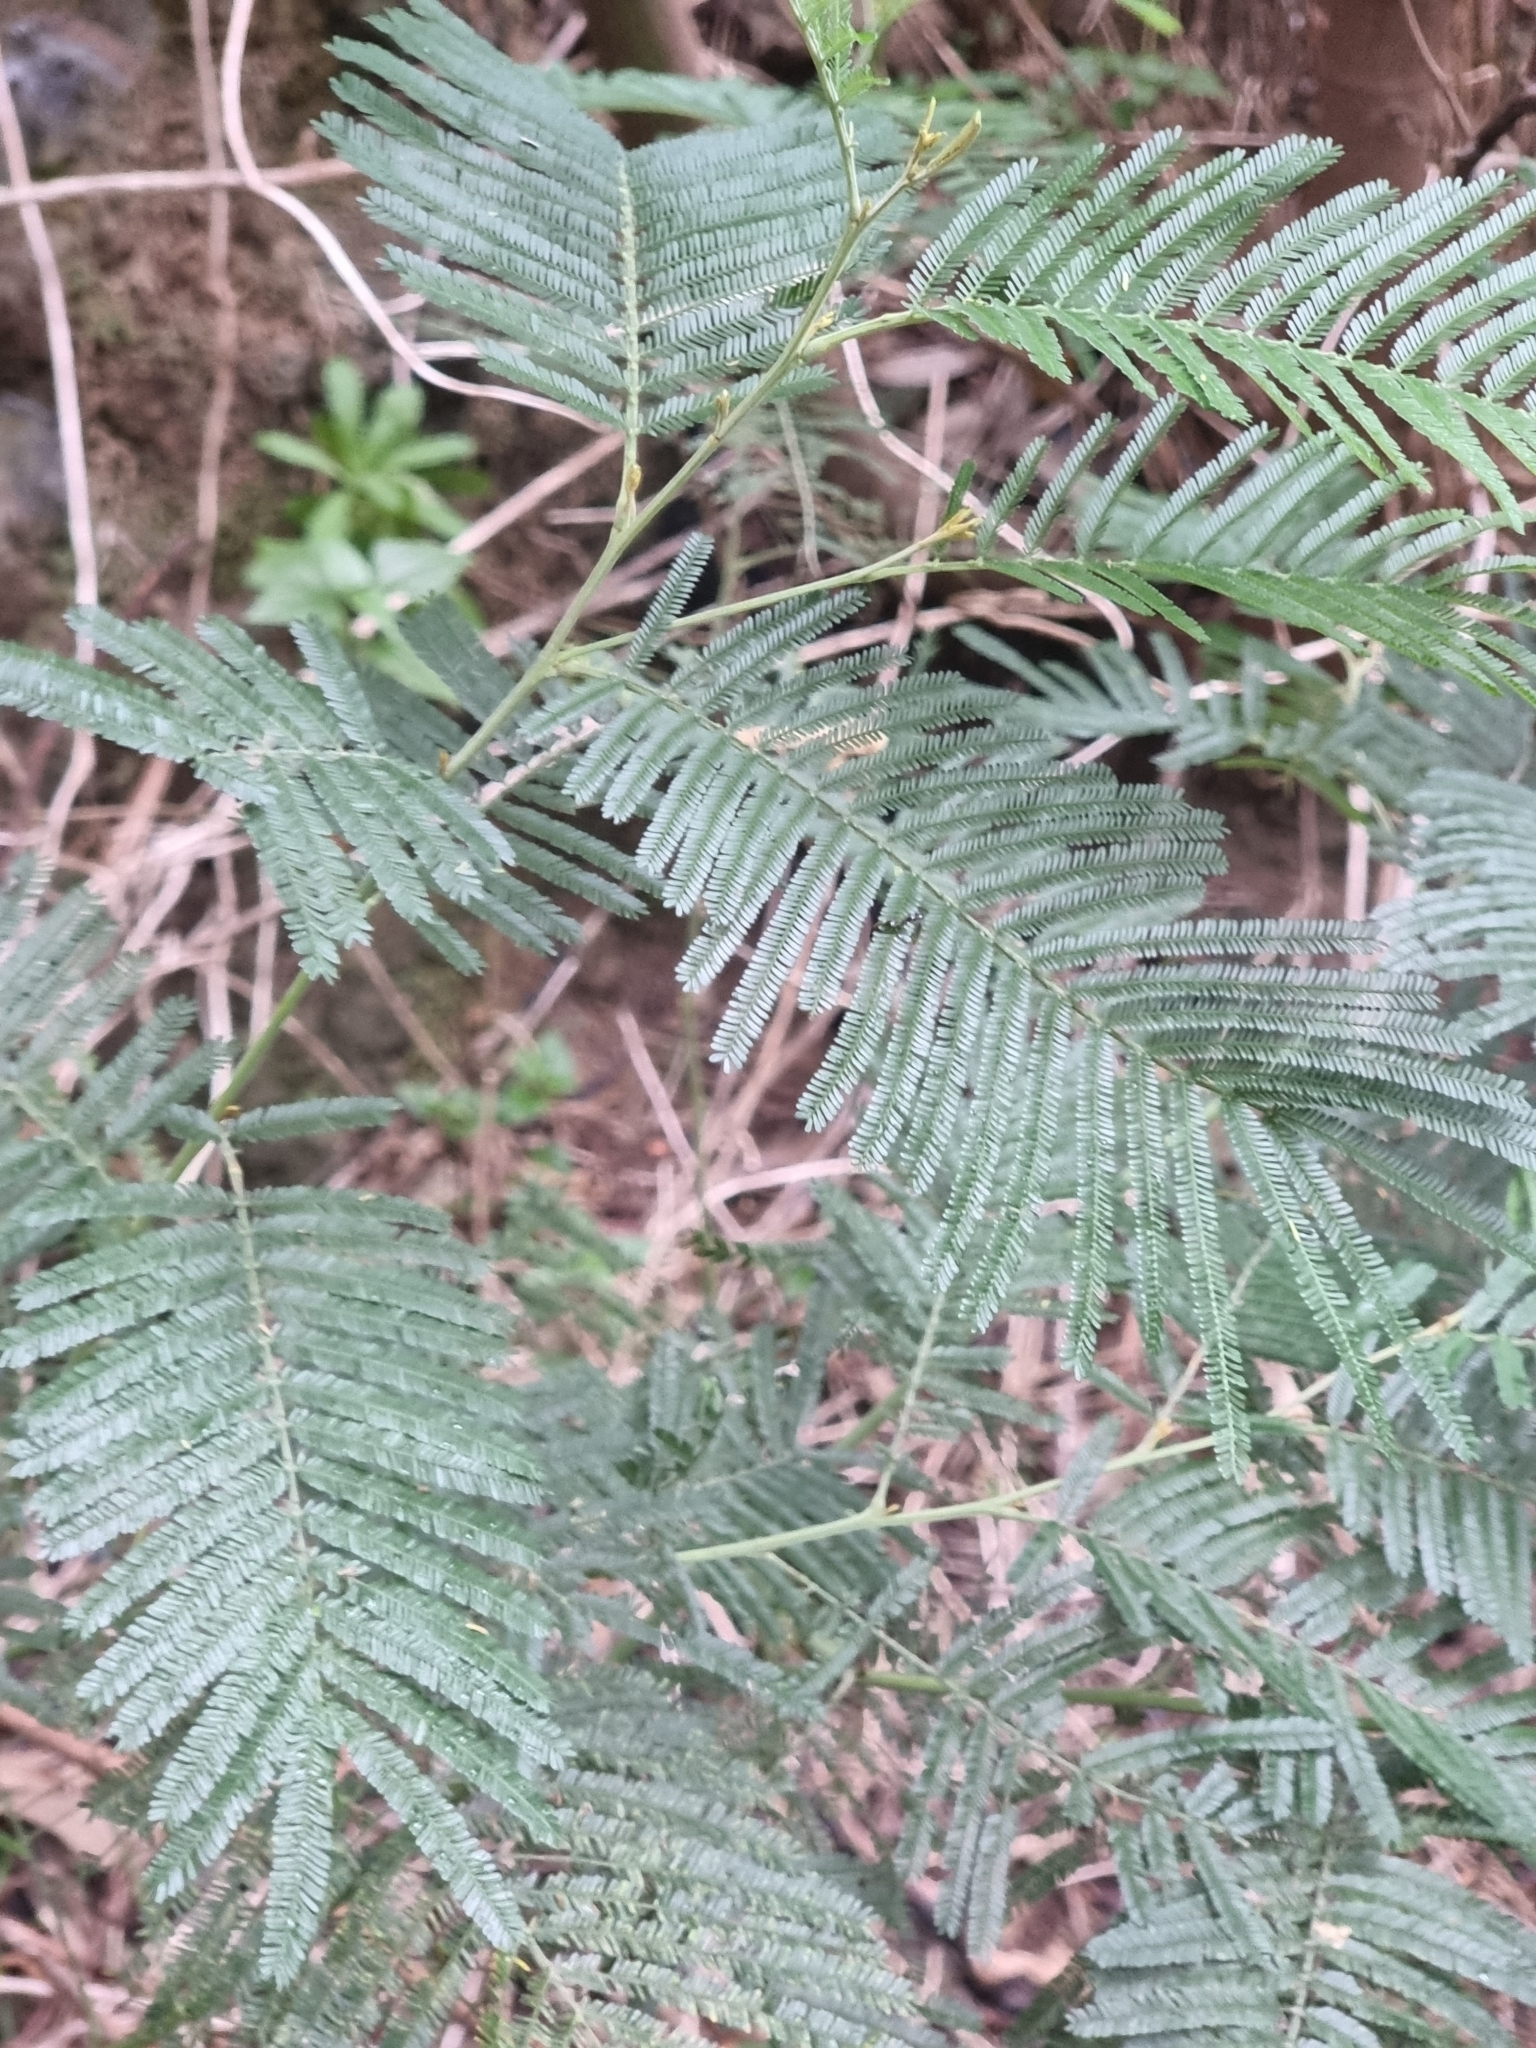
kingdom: Plantae
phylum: Tracheophyta
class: Magnoliopsida
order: Fabales
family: Fabaceae
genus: Acacia
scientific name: Acacia mearnsii
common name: Black wattle
